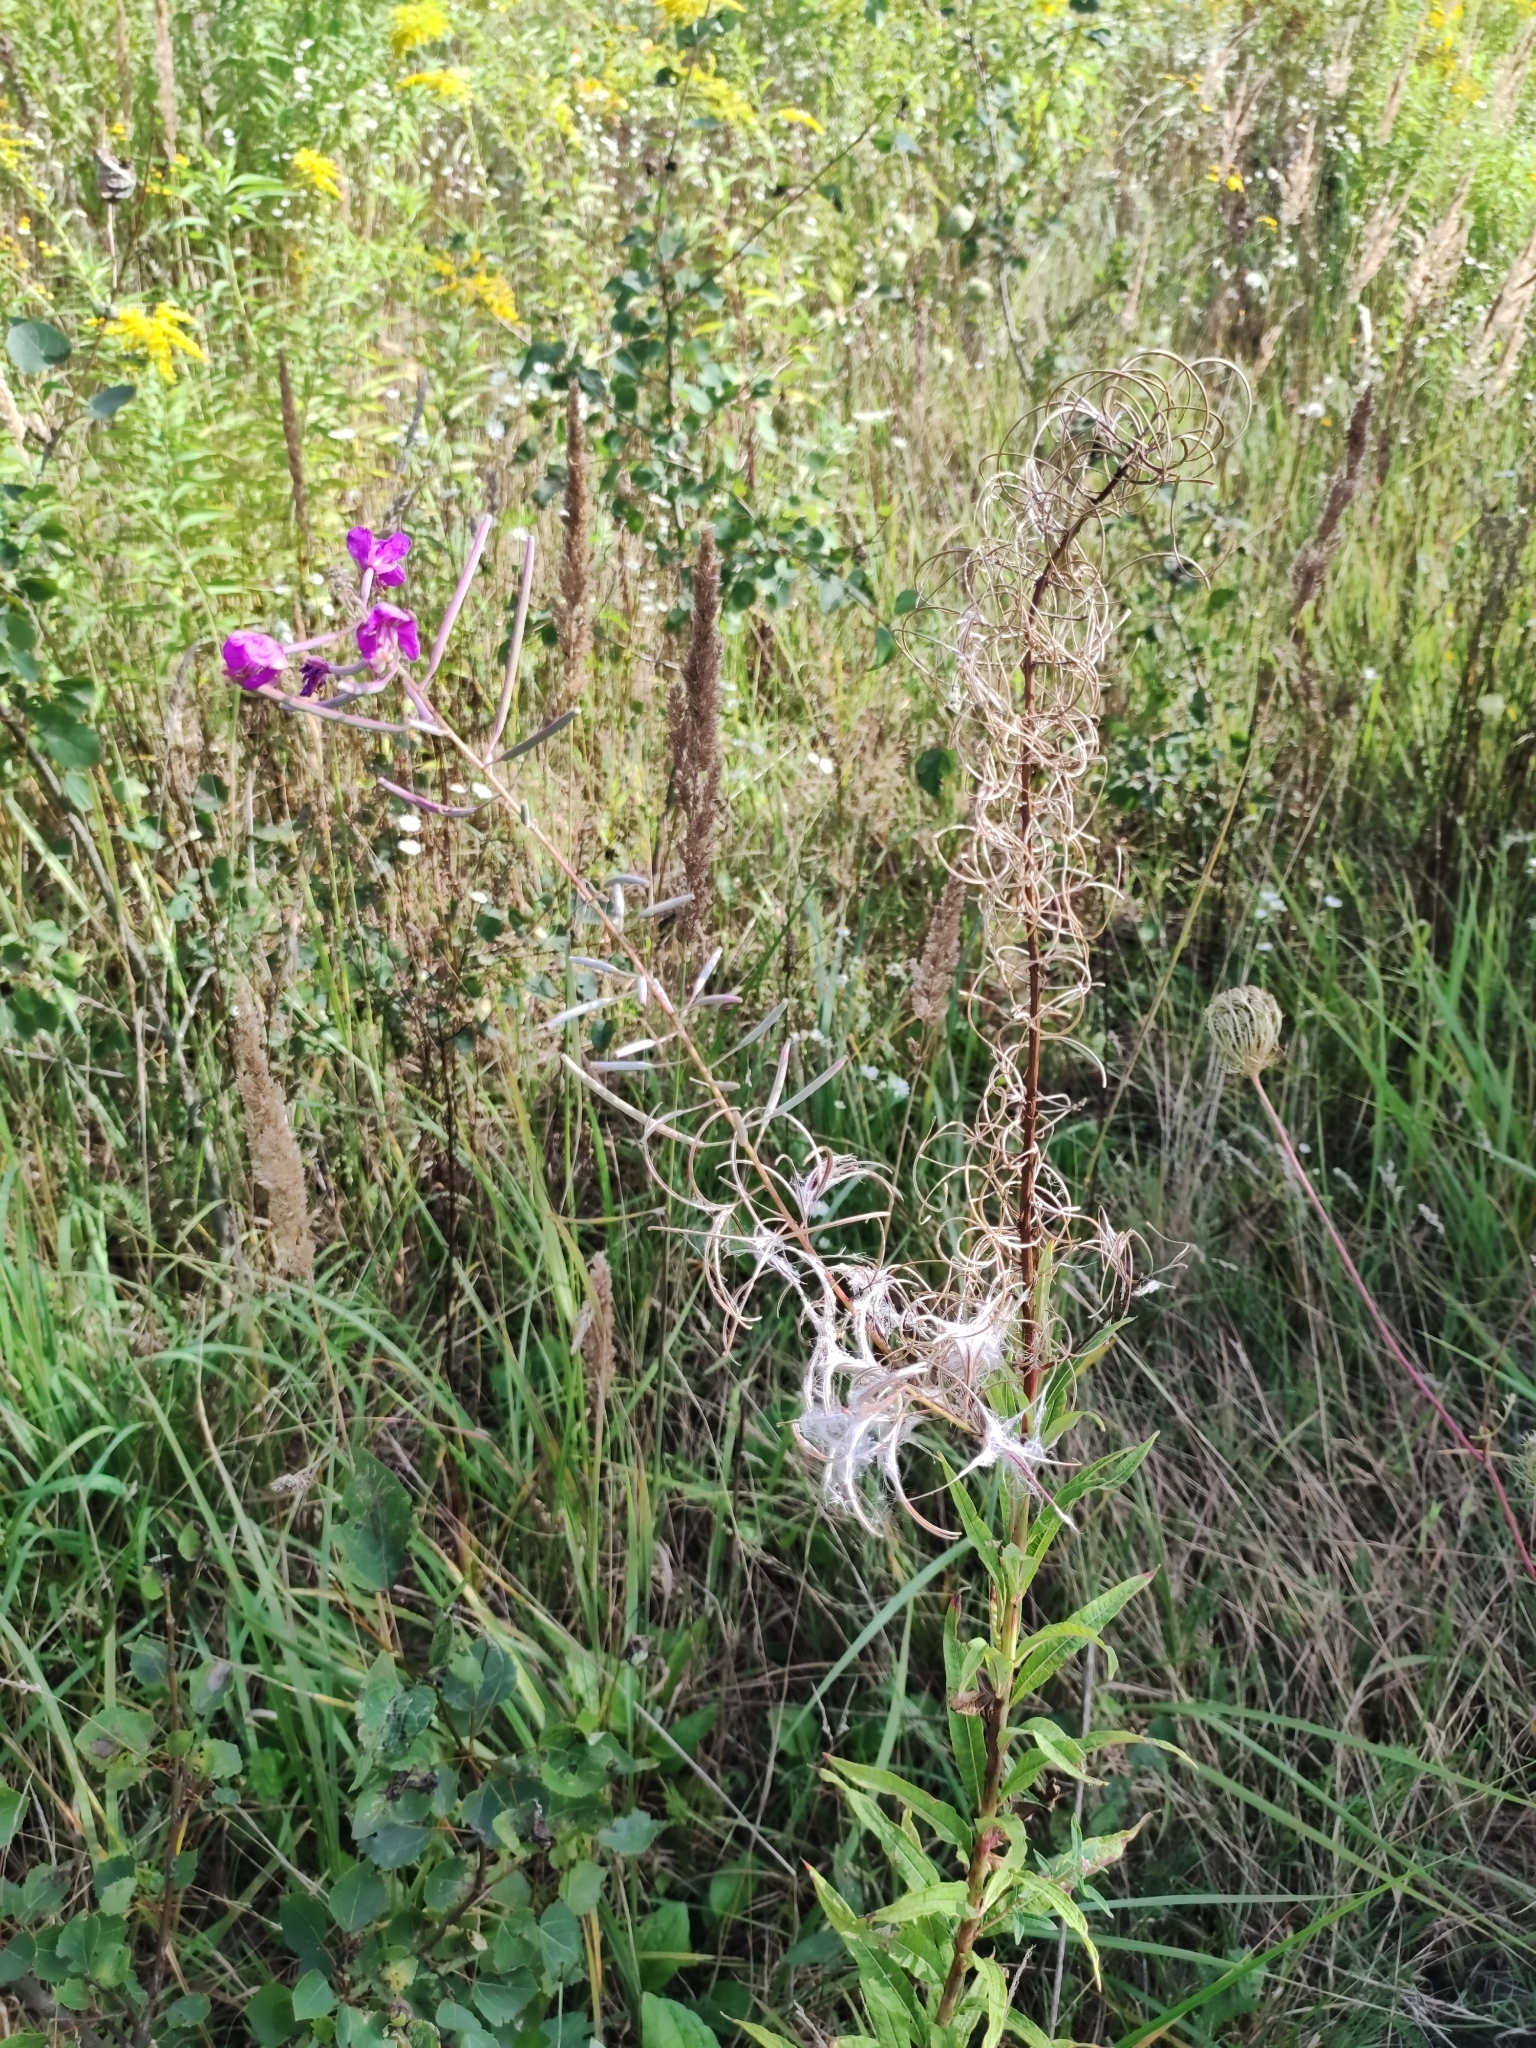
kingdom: Plantae
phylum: Tracheophyta
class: Magnoliopsida
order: Myrtales
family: Onagraceae
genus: Chamaenerion
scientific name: Chamaenerion angustifolium
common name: Fireweed
